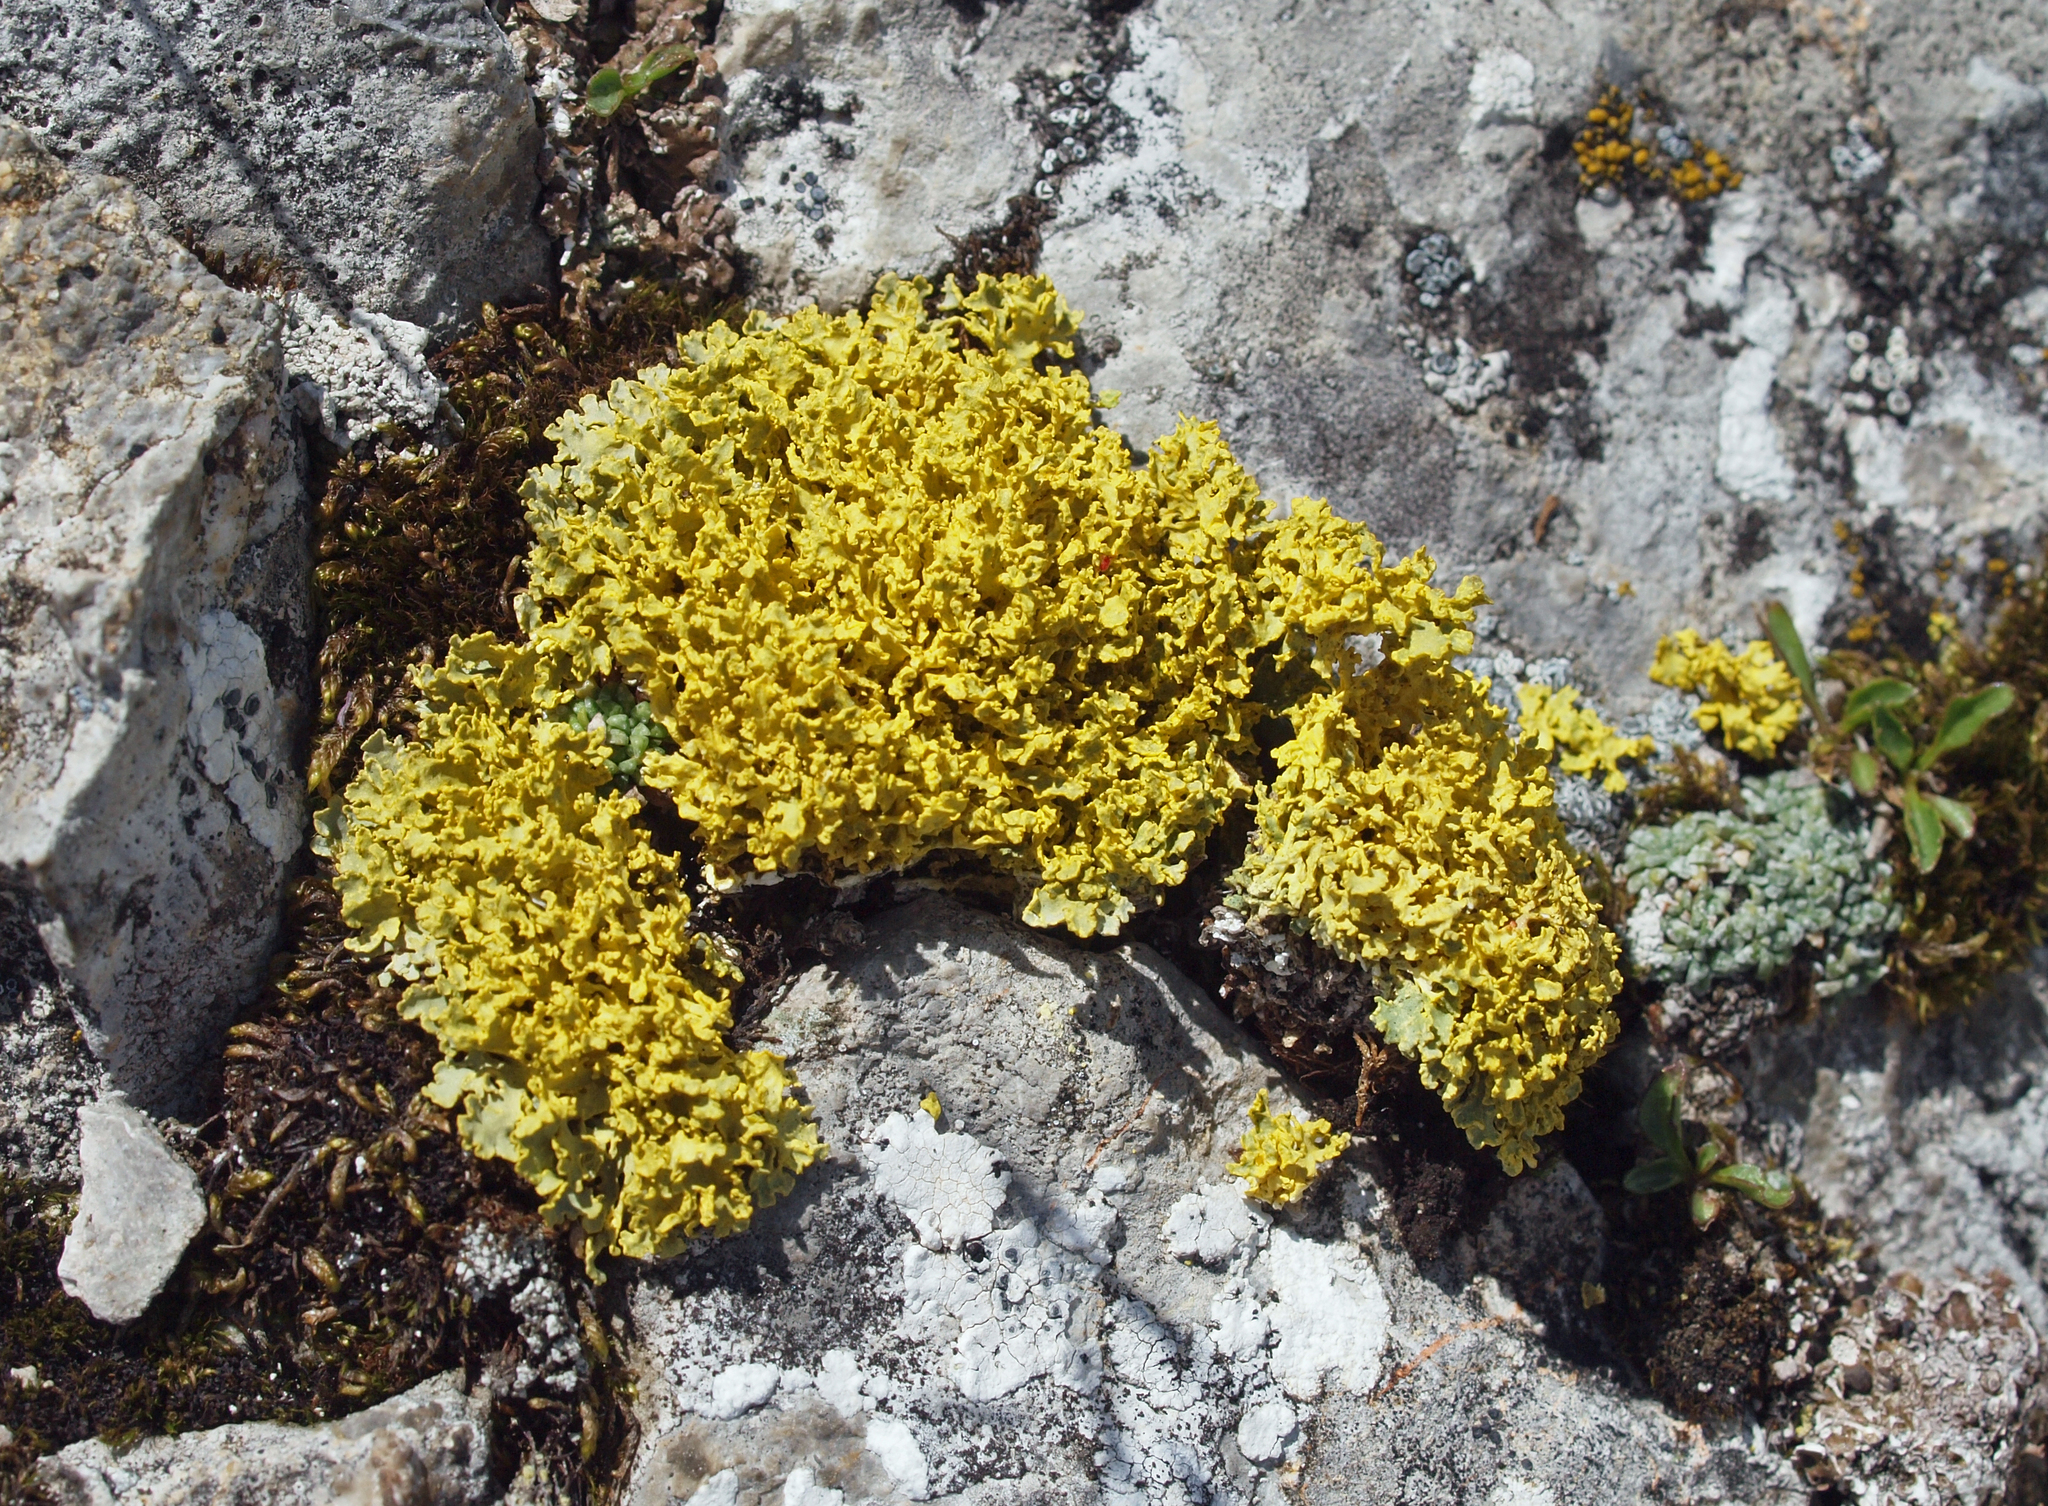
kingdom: Fungi
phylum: Ascomycota
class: Lecanoromycetes
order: Lecanorales
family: Parmeliaceae
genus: Vulpicida
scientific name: Vulpicida tubulosus
